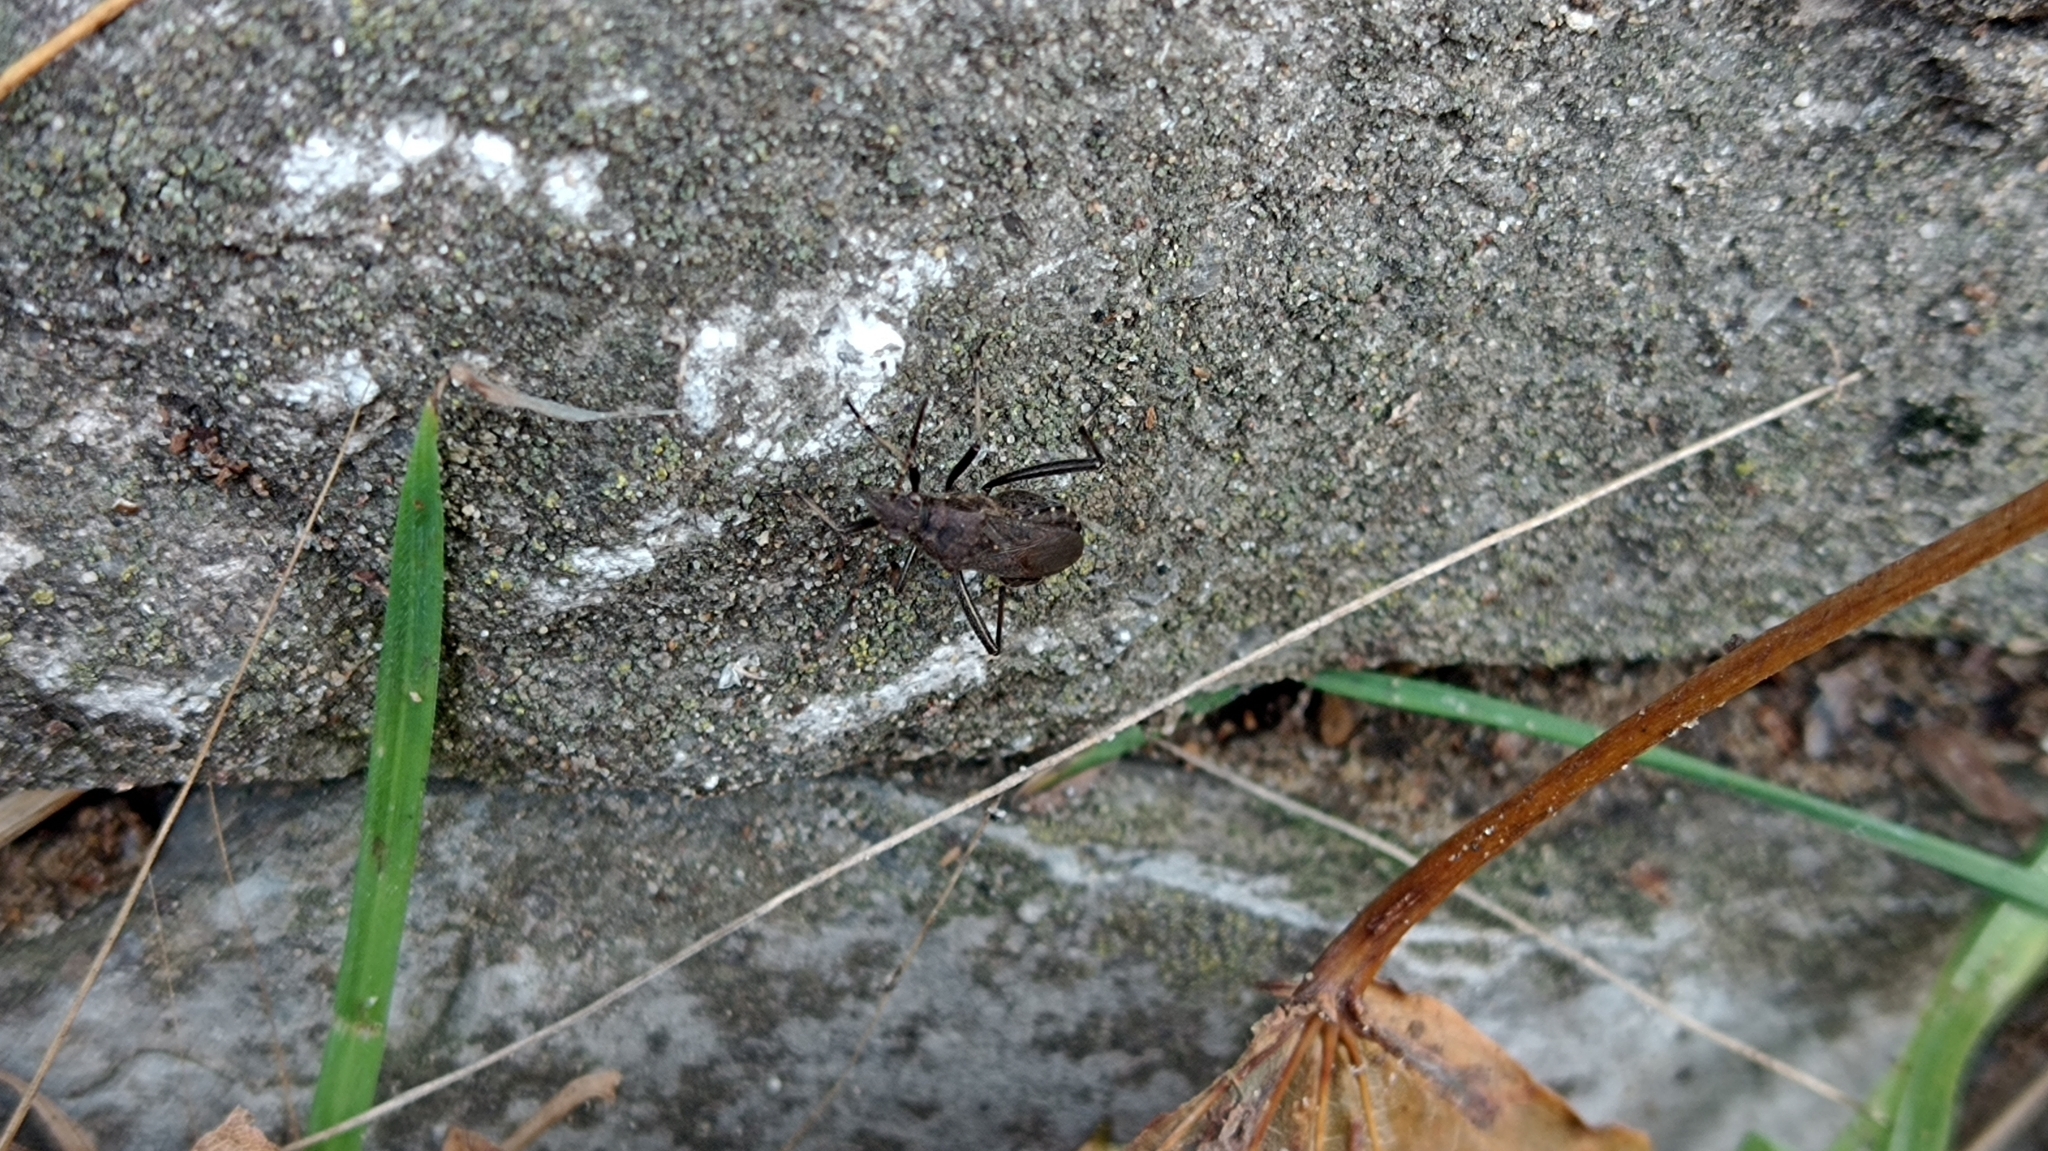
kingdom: Animalia
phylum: Arthropoda
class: Insecta
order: Hemiptera
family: Alydidae
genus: Alydus
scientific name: Alydus calcaratus
